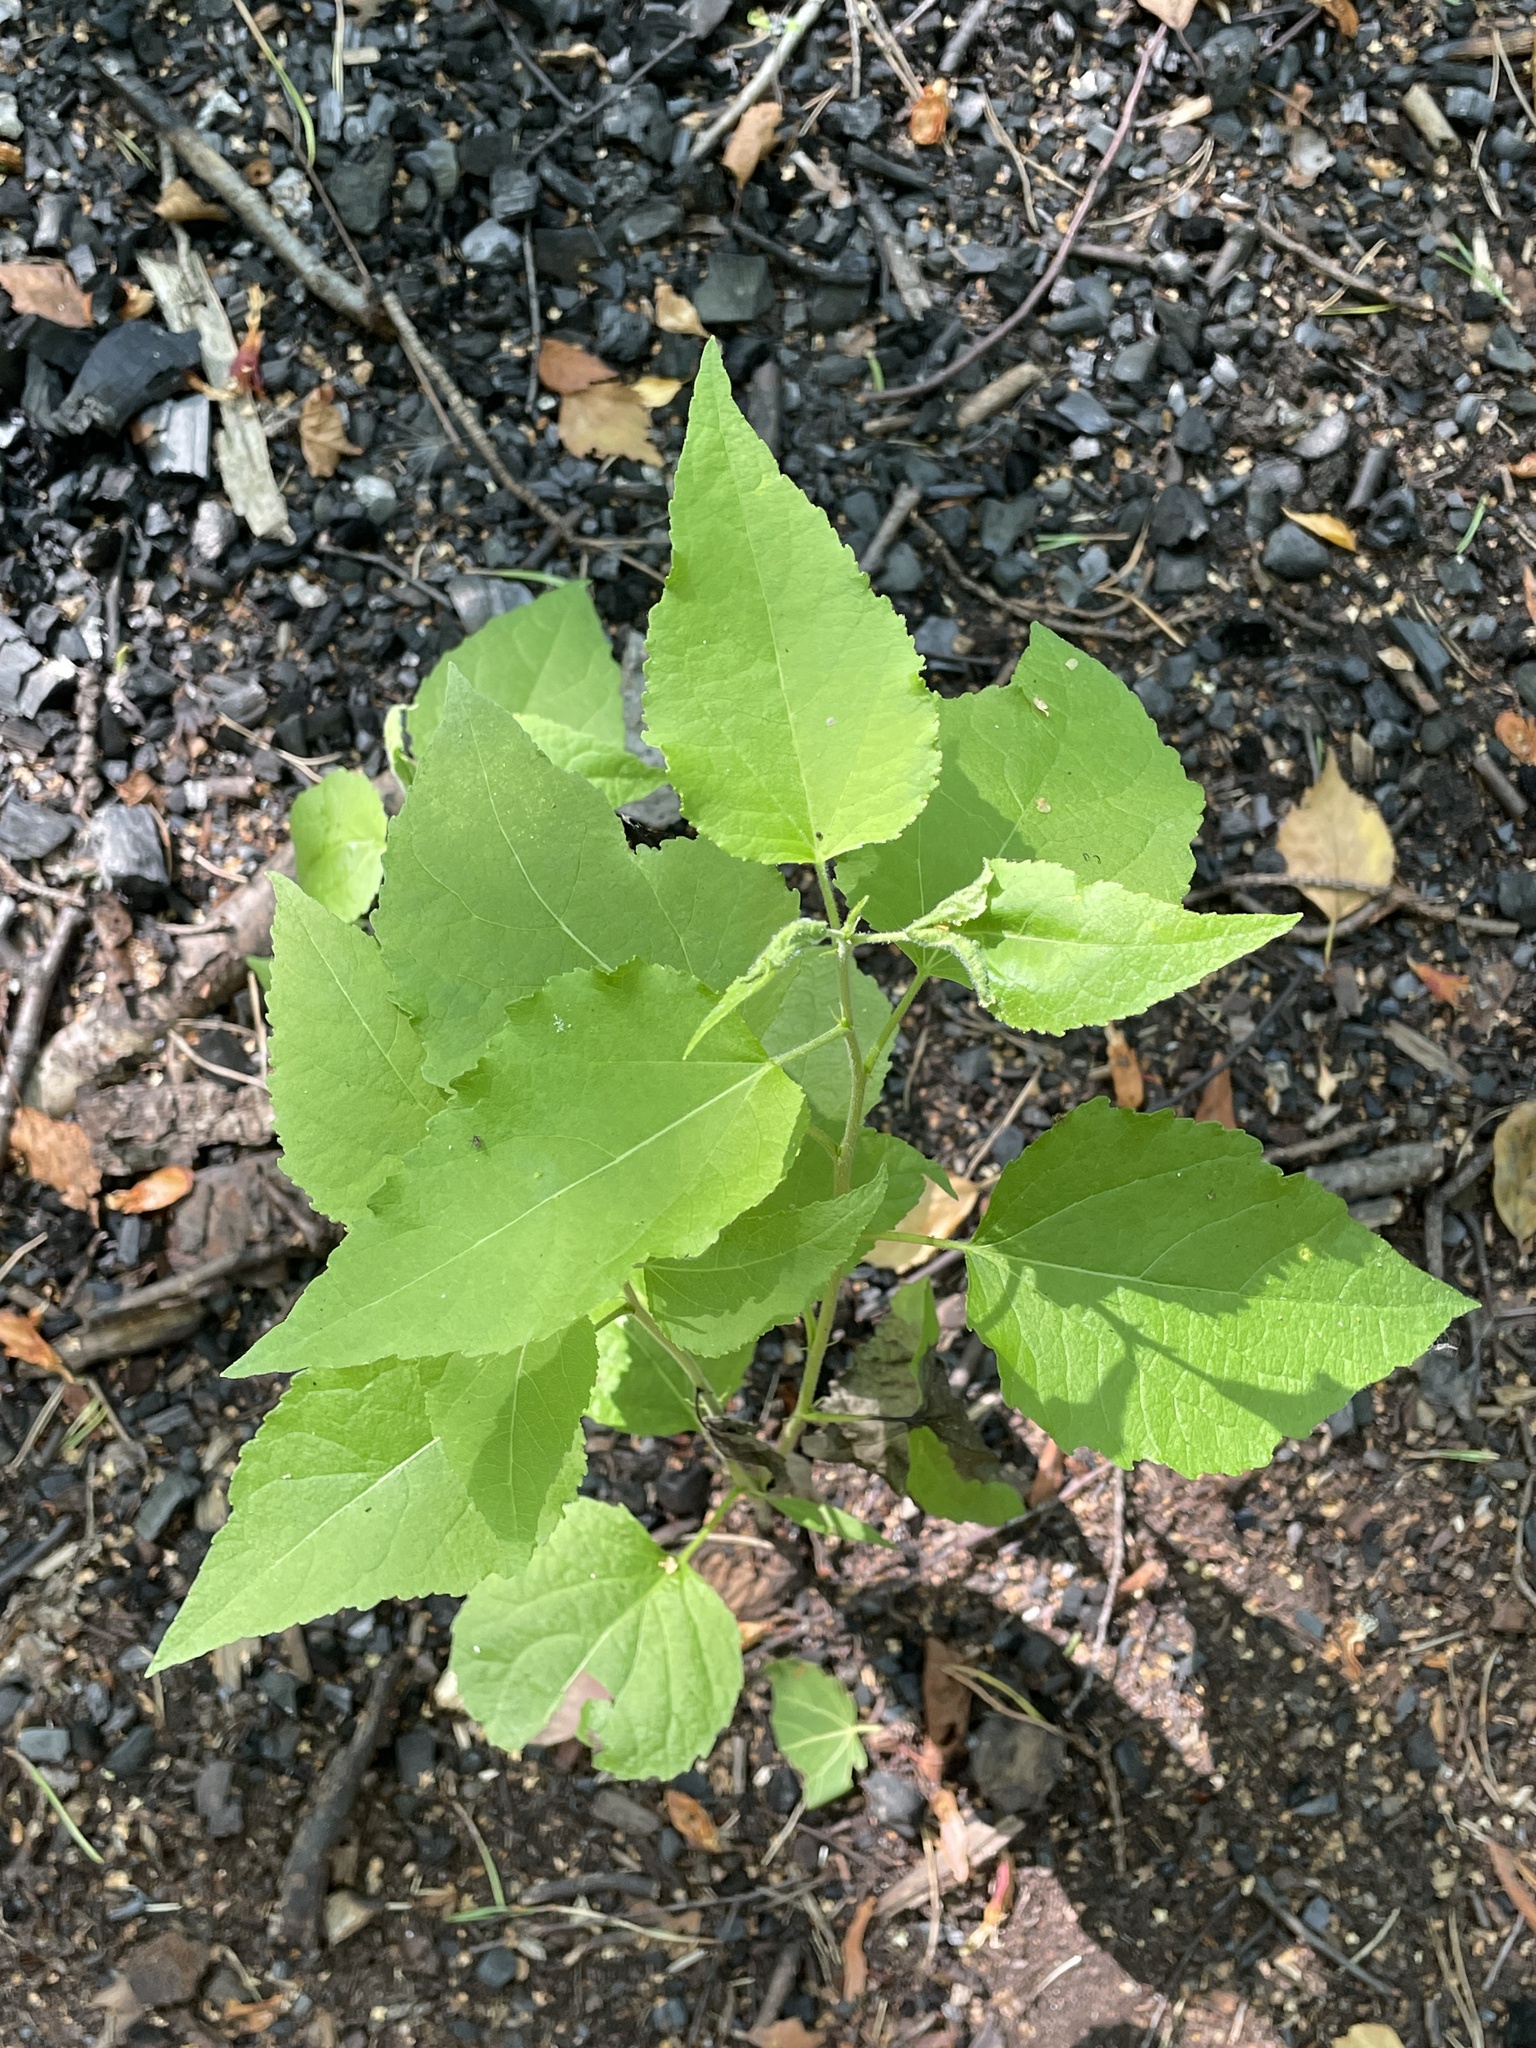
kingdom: Plantae
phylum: Tracheophyta
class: Magnoliopsida
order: Malpighiales
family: Salicaceae
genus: Populus
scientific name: Populus tremula
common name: European aspen
